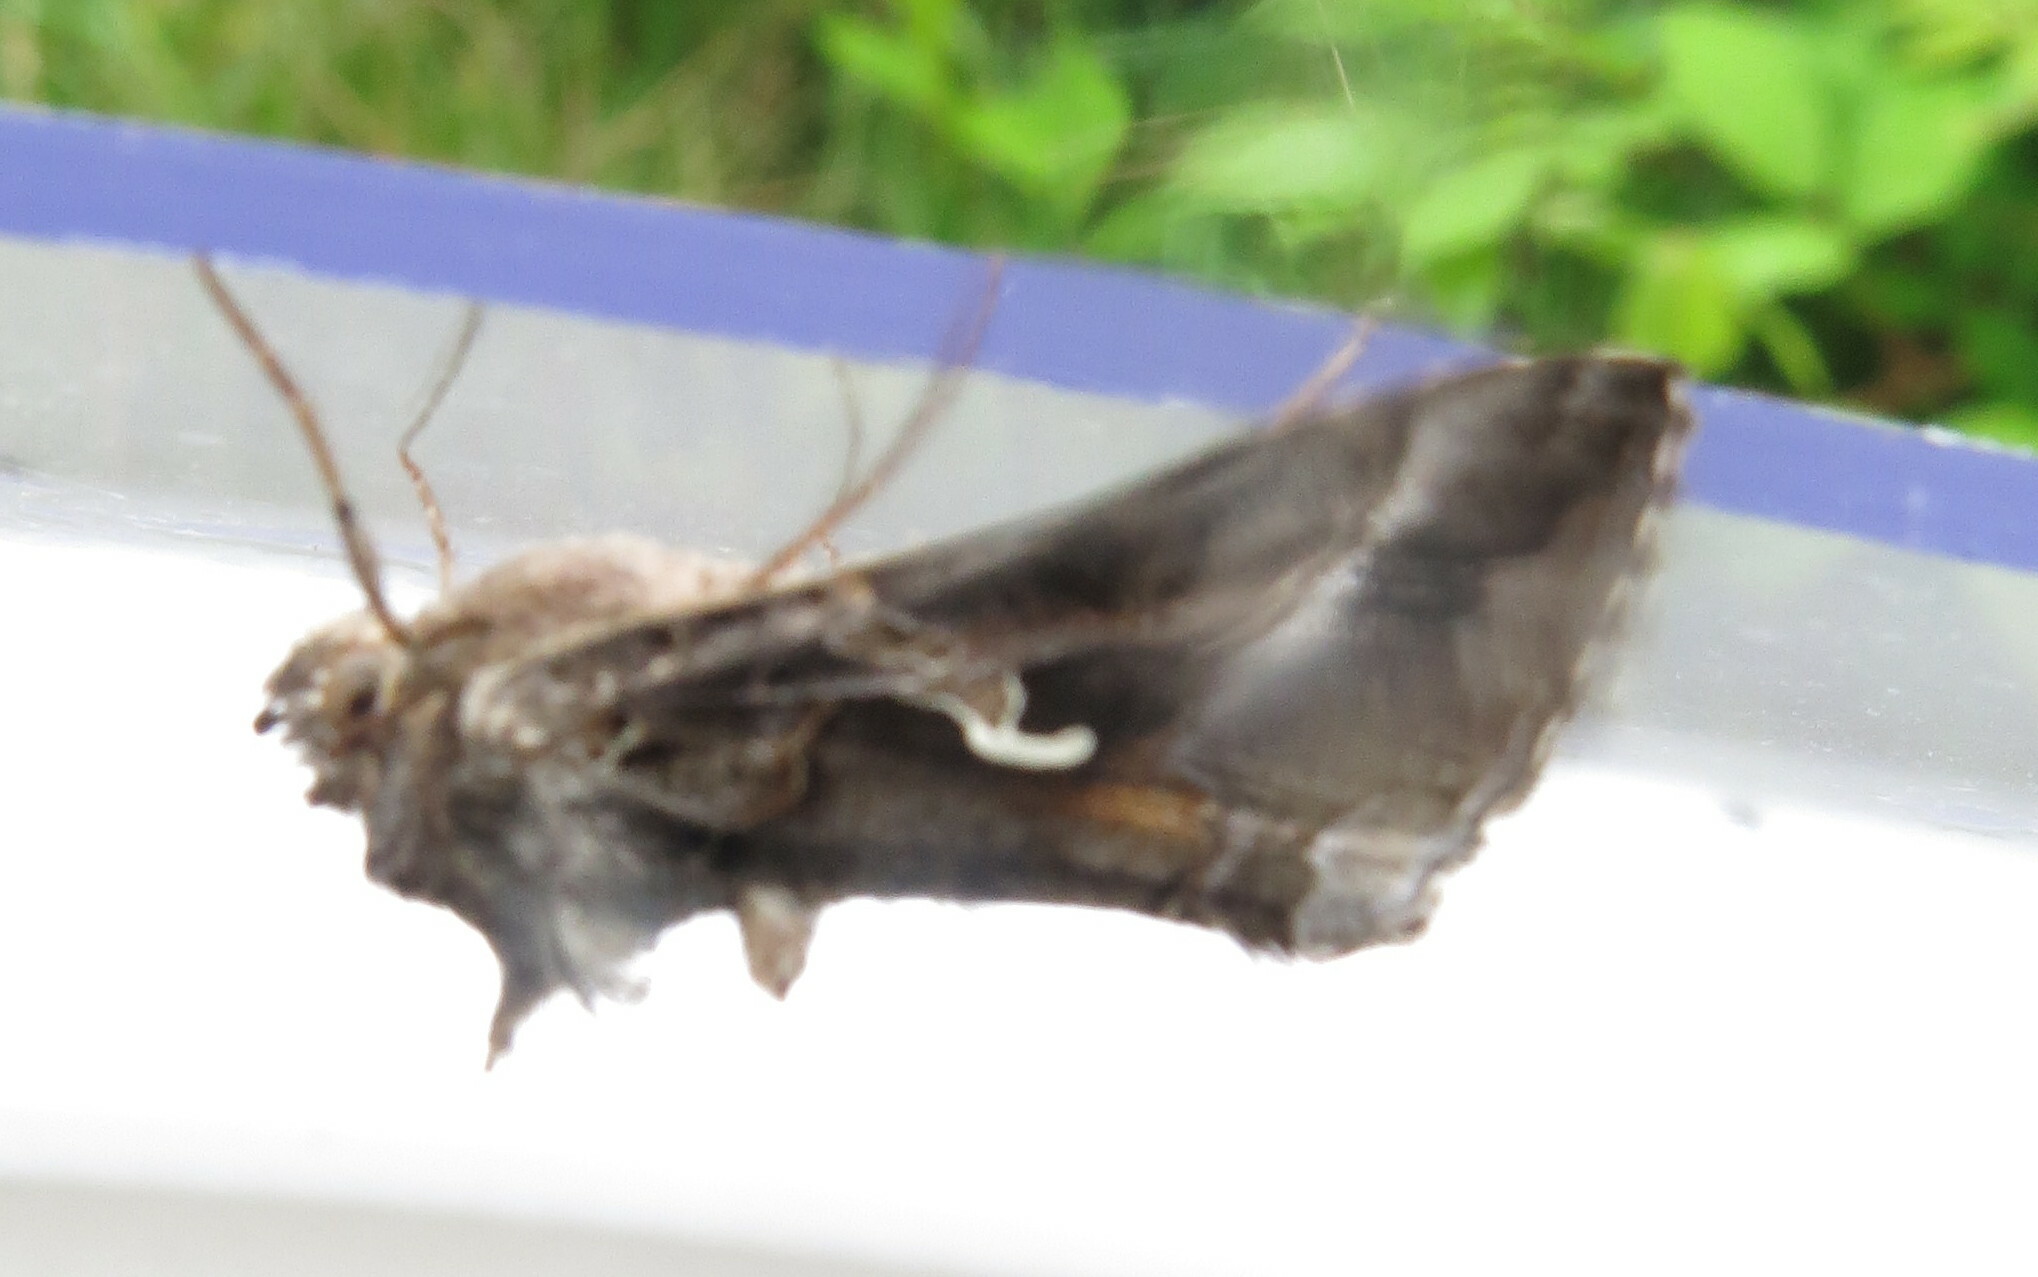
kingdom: Animalia
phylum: Arthropoda
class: Insecta
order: Lepidoptera
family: Noctuidae
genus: Autographa
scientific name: Autographa gamma
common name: Silver y
